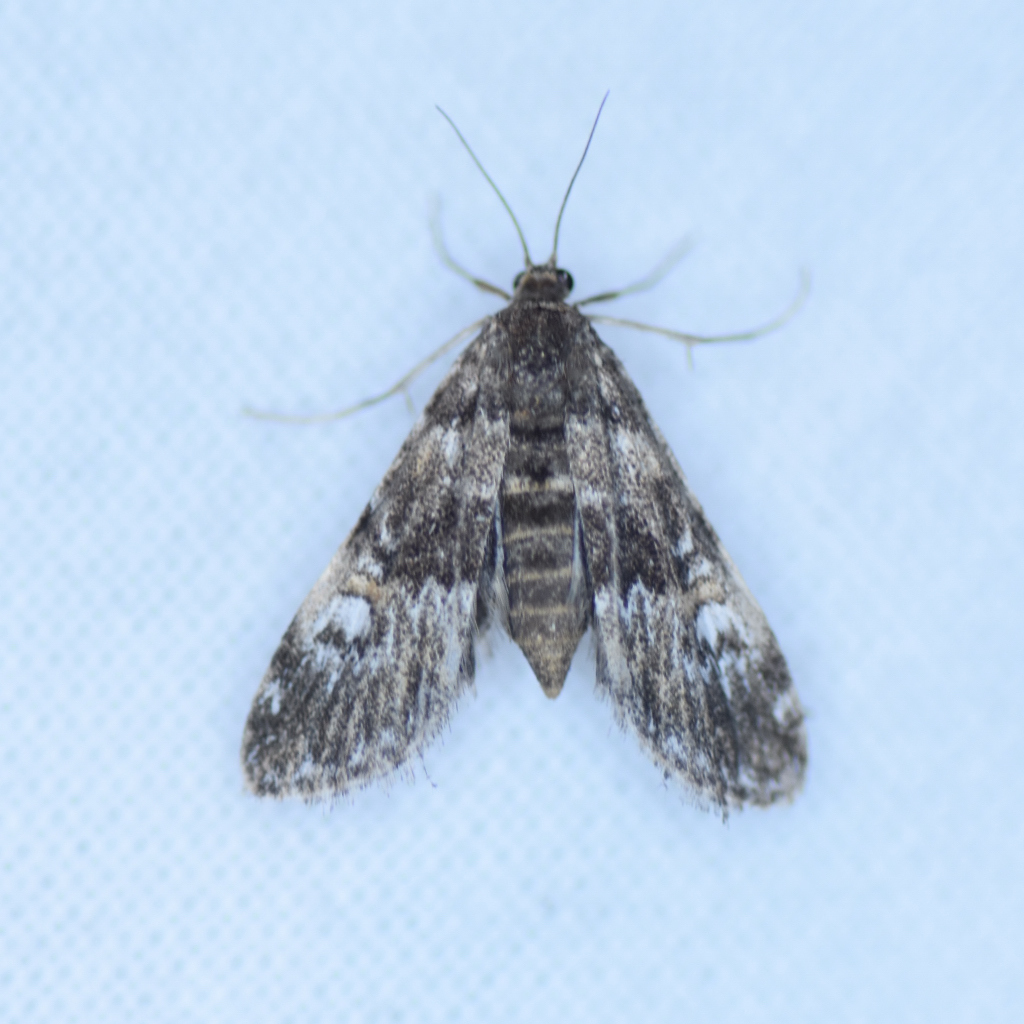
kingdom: Animalia
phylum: Arthropoda
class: Insecta
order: Lepidoptera
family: Crambidae
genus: Elophila
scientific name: Elophila obliteralis
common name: Waterlily leafcutter moth
